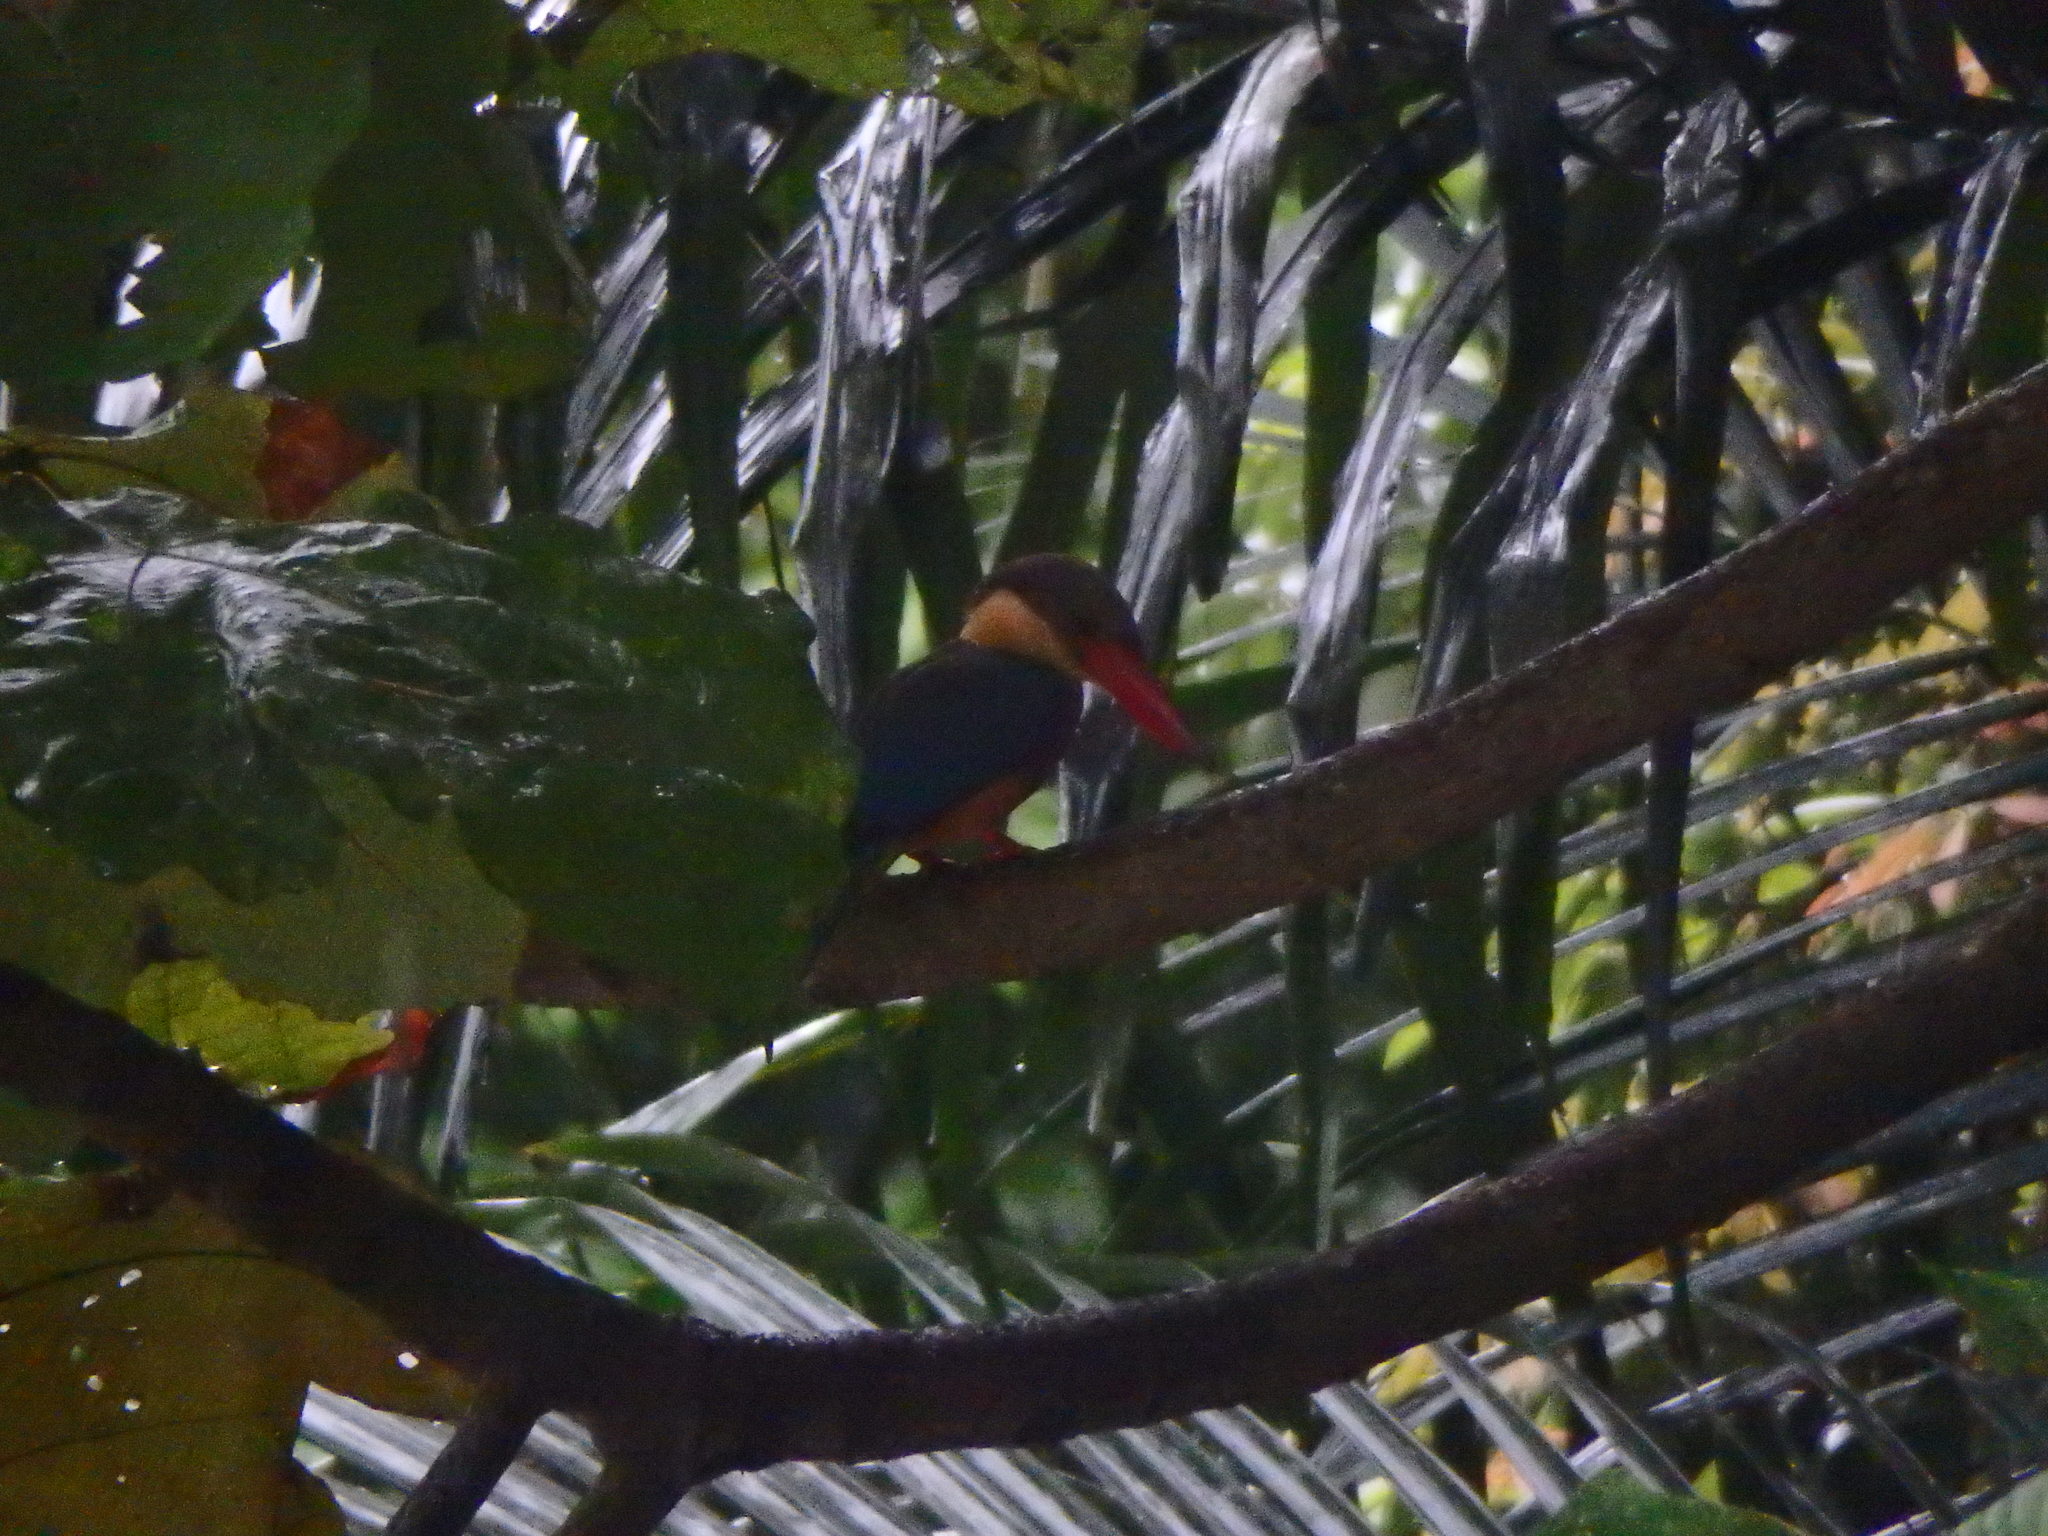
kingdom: Animalia
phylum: Chordata
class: Aves
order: Coraciiformes
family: Alcedinidae
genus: Pelargopsis
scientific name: Pelargopsis capensis
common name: Stork-billed kingfisher
